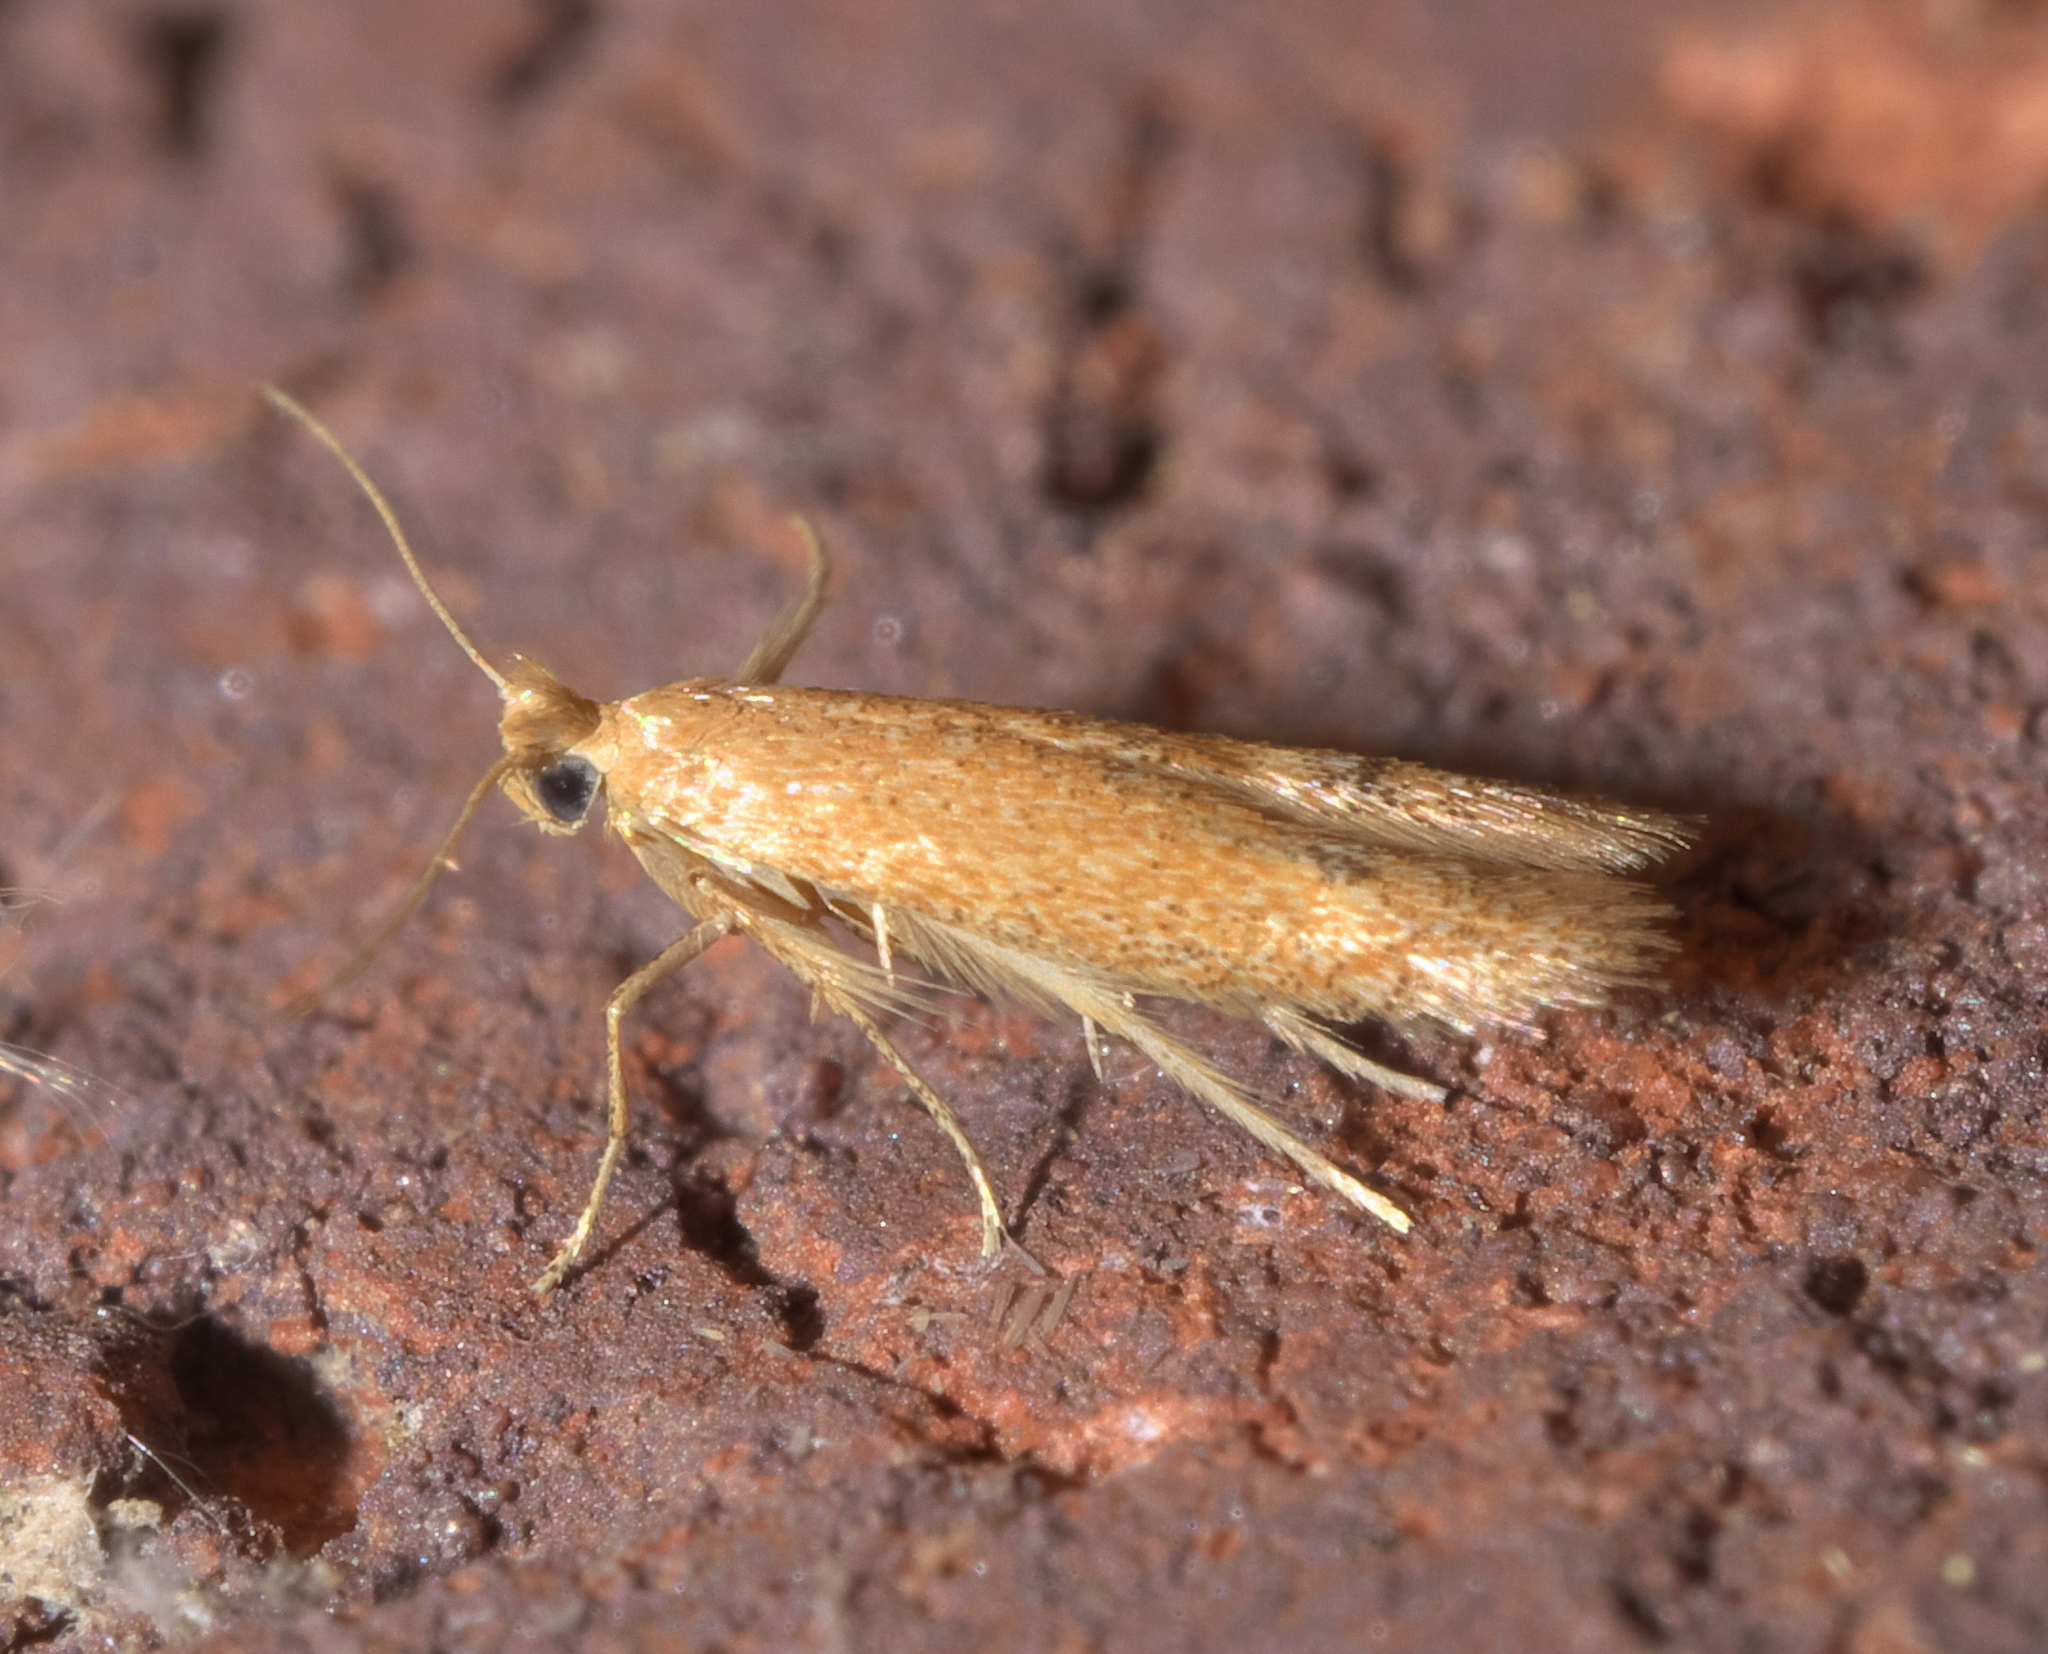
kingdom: Animalia
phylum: Arthropoda
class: Insecta
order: Lepidoptera
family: Tischeriidae
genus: Tischeria
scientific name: Tischeria quercitella
